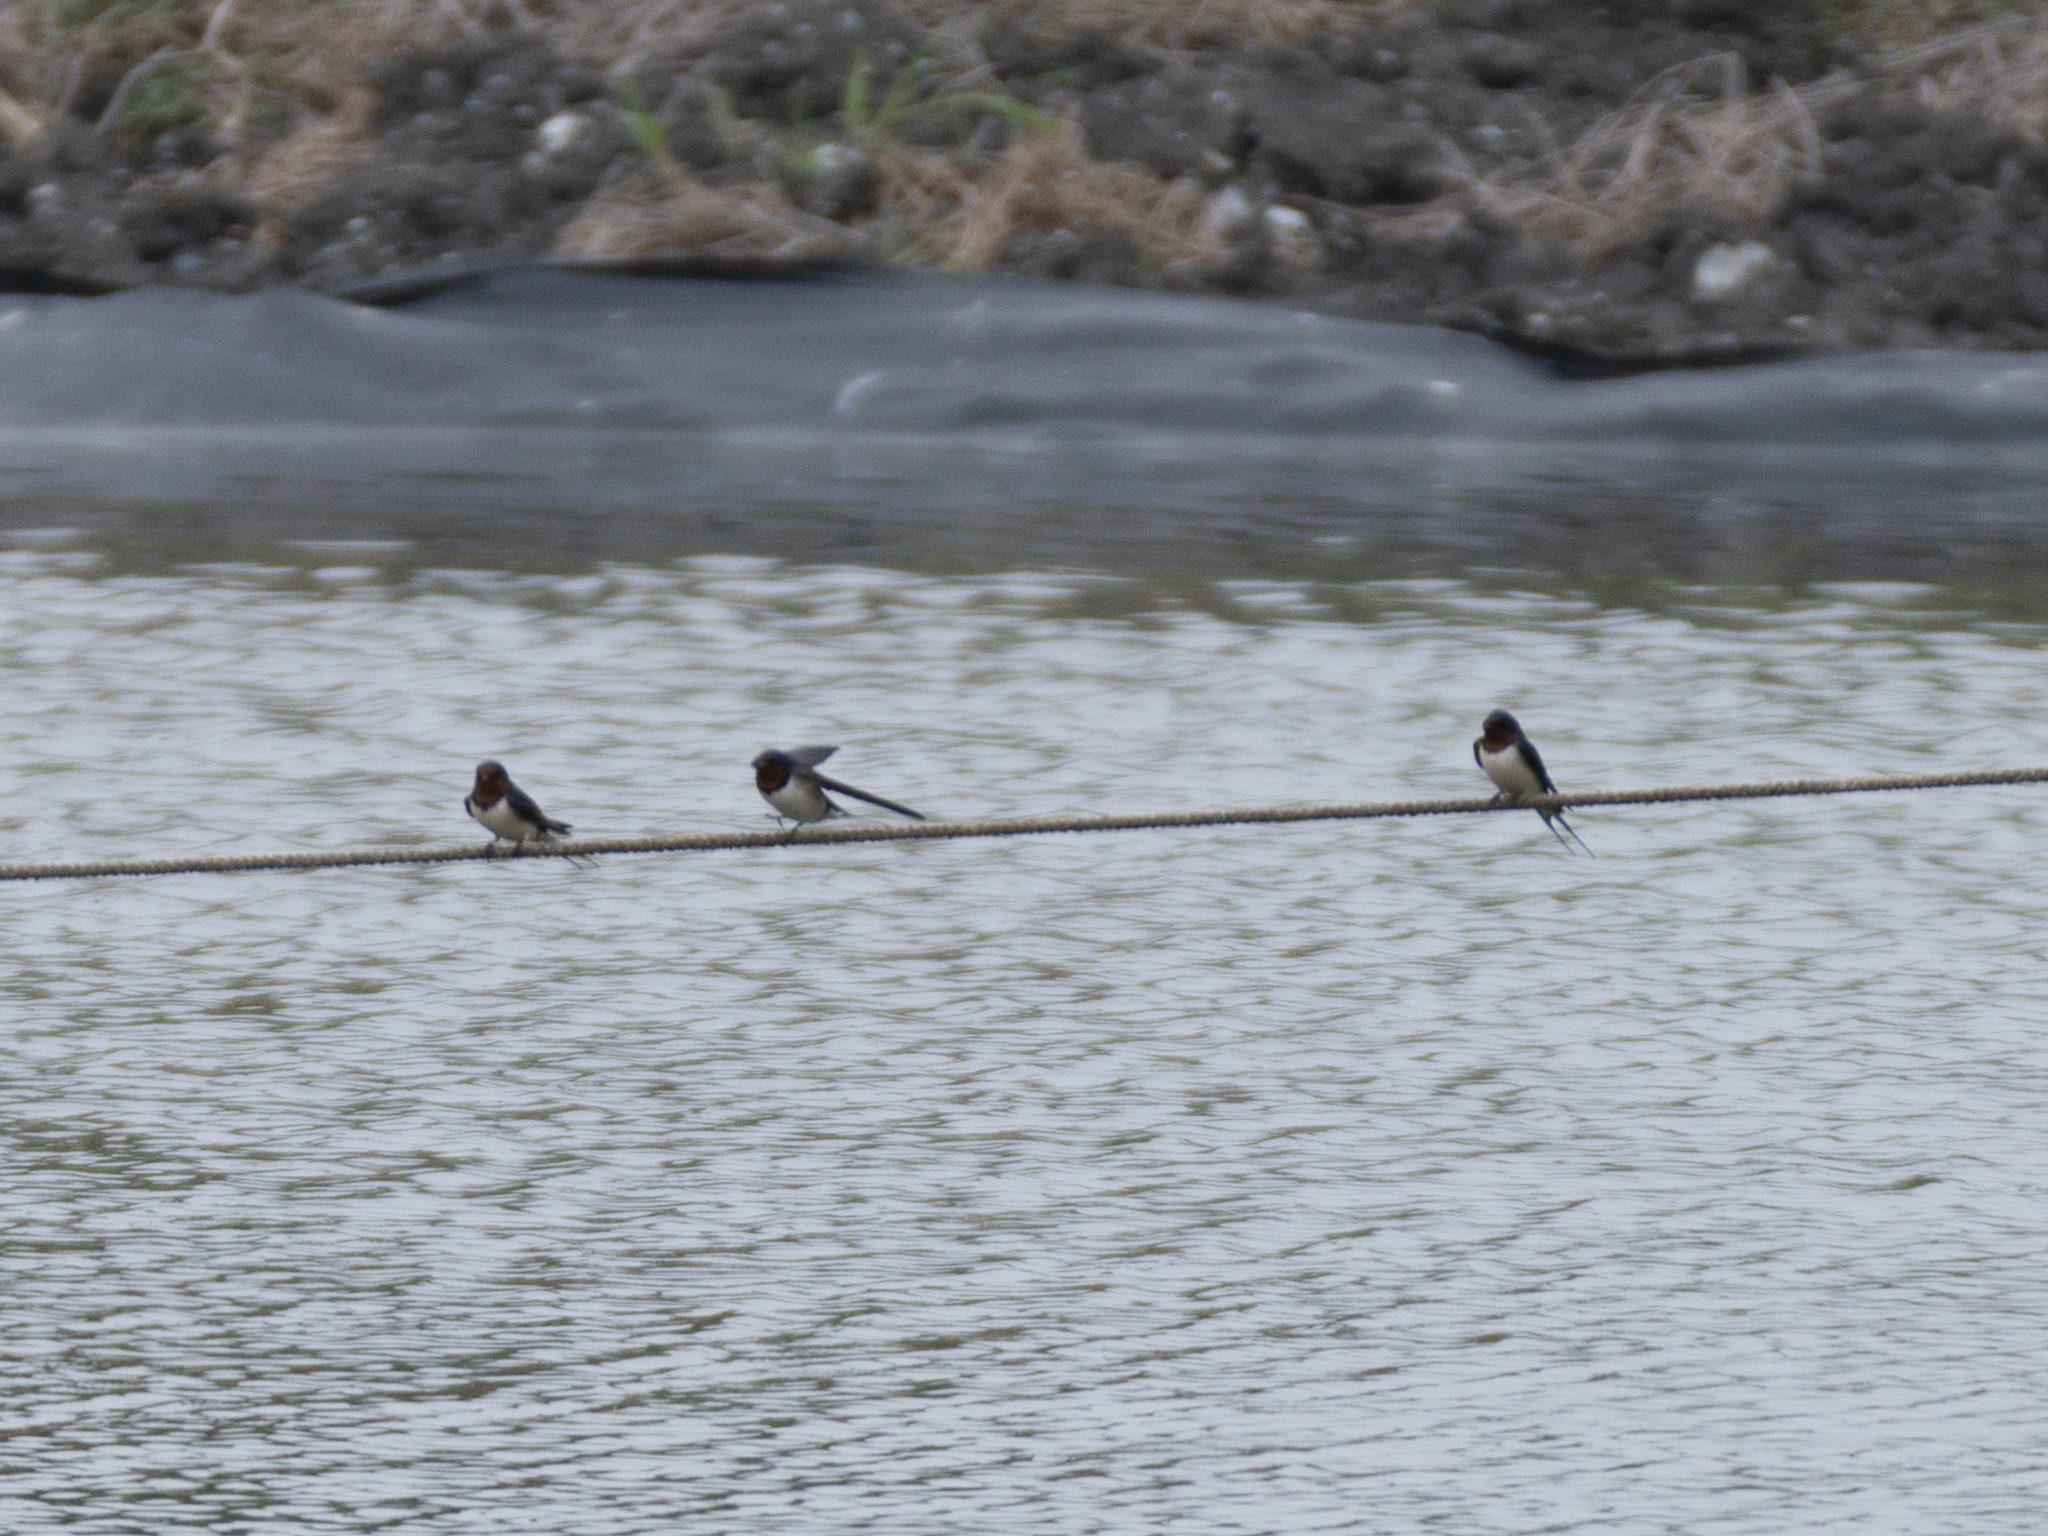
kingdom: Animalia
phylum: Chordata
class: Aves
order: Passeriformes
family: Hirundinidae
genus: Hirundo
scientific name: Hirundo rustica
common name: Barn swallow
